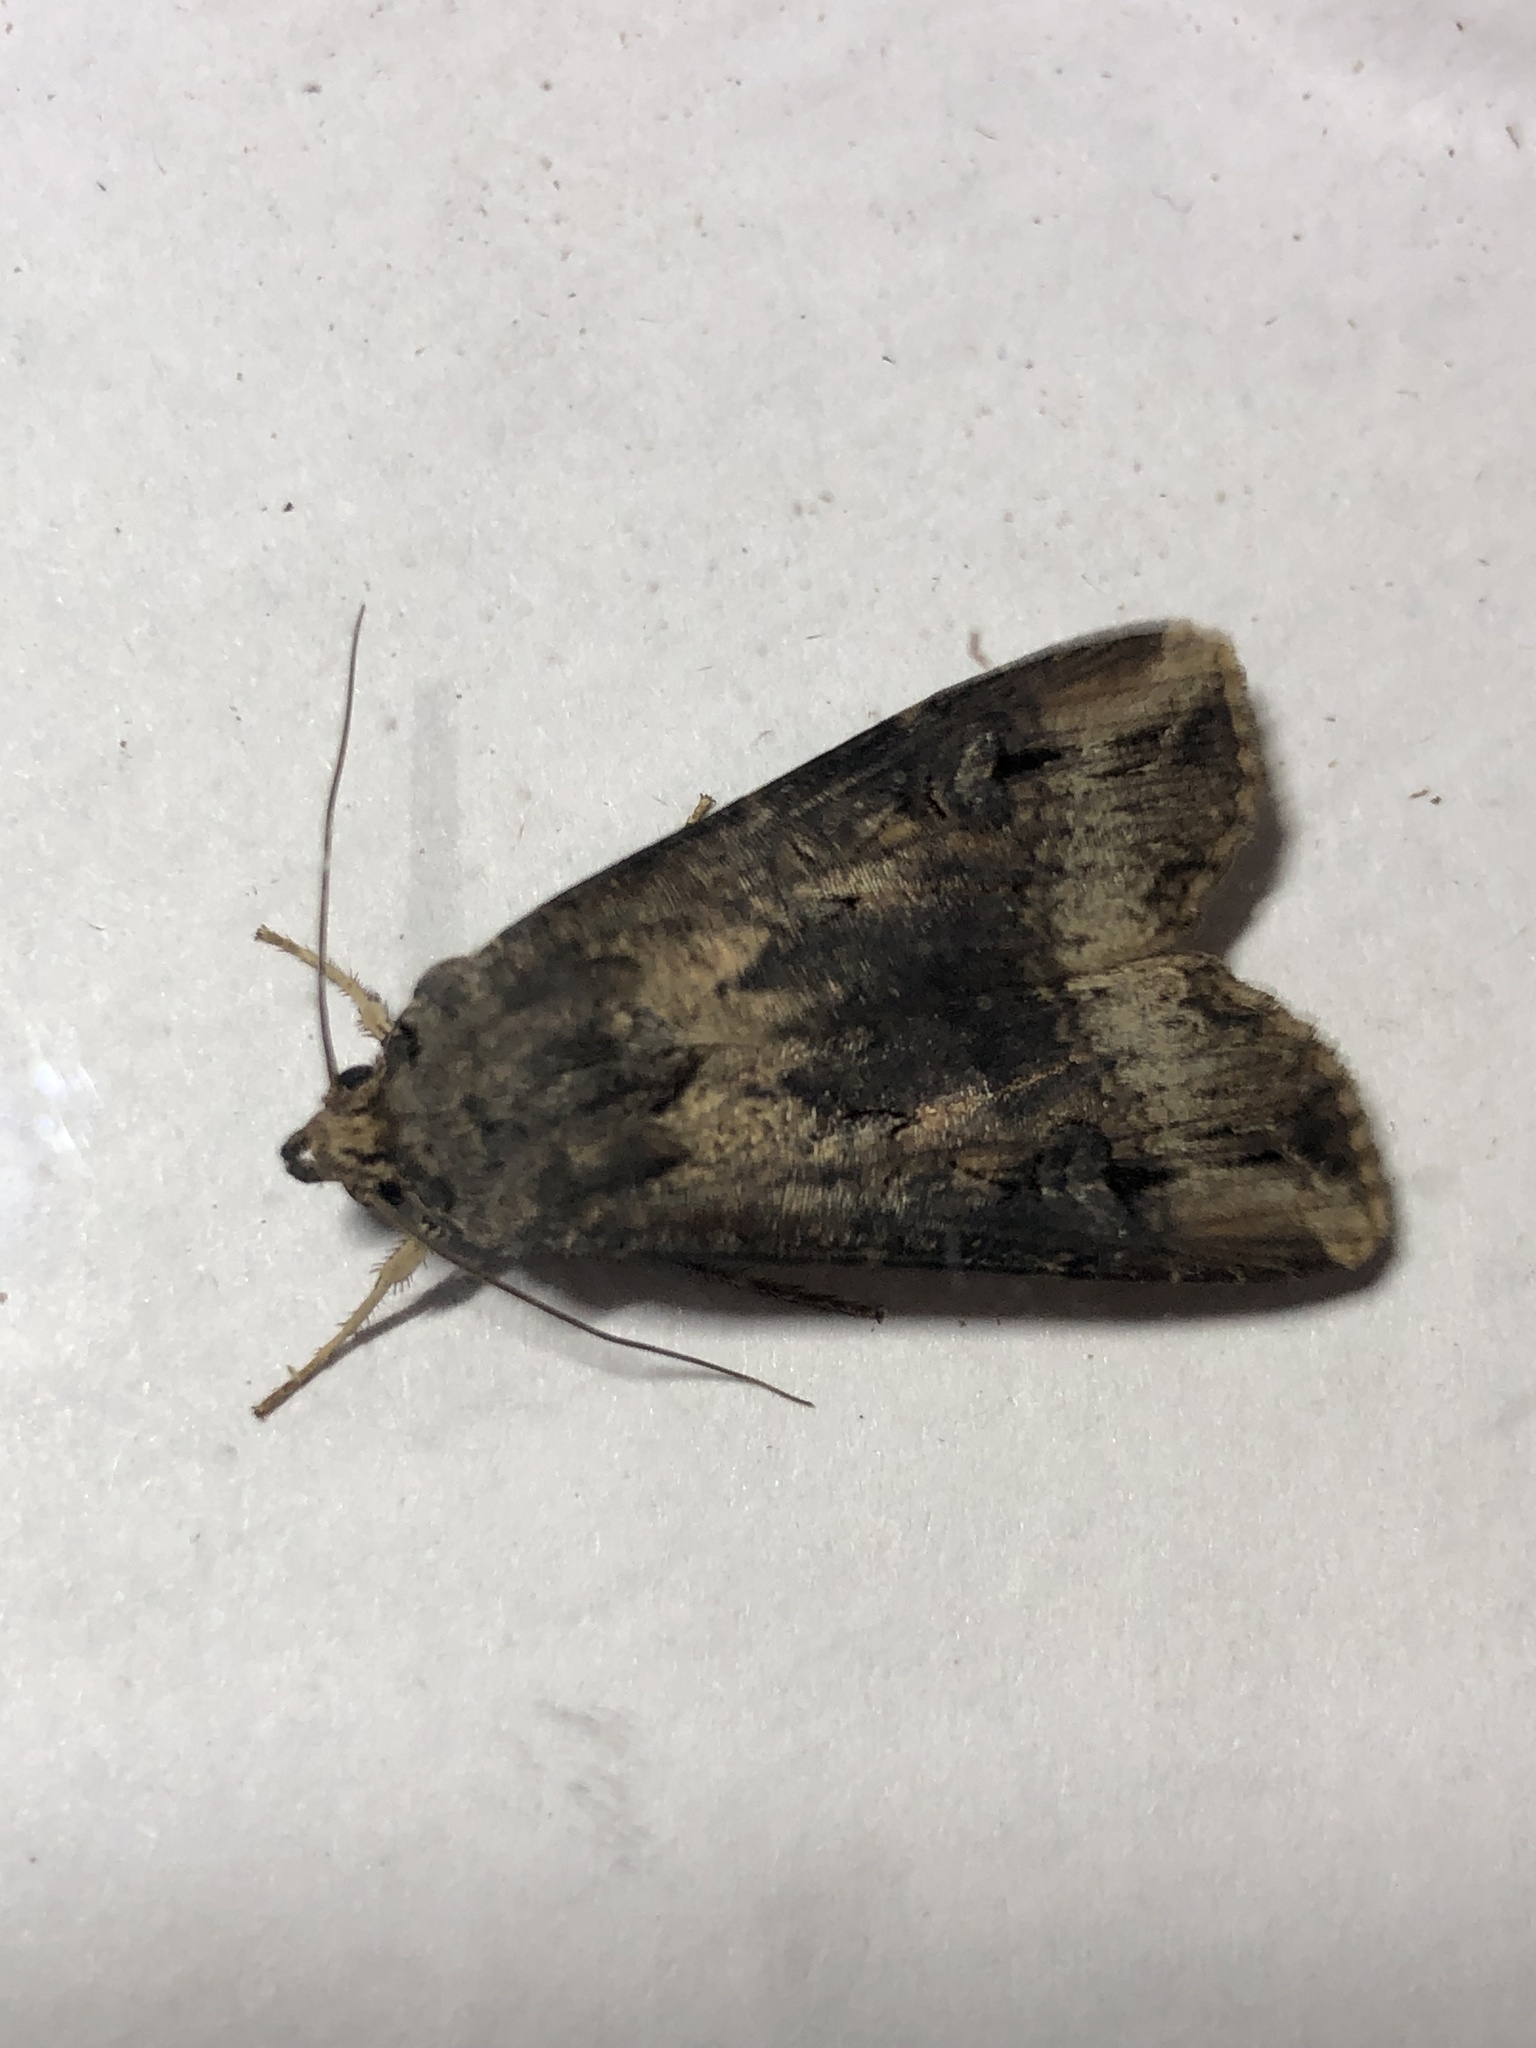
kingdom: Animalia
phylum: Arthropoda
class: Insecta
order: Lepidoptera
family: Noctuidae
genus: Agrotis
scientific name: Agrotis ipsilon
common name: Dark sword-grass
